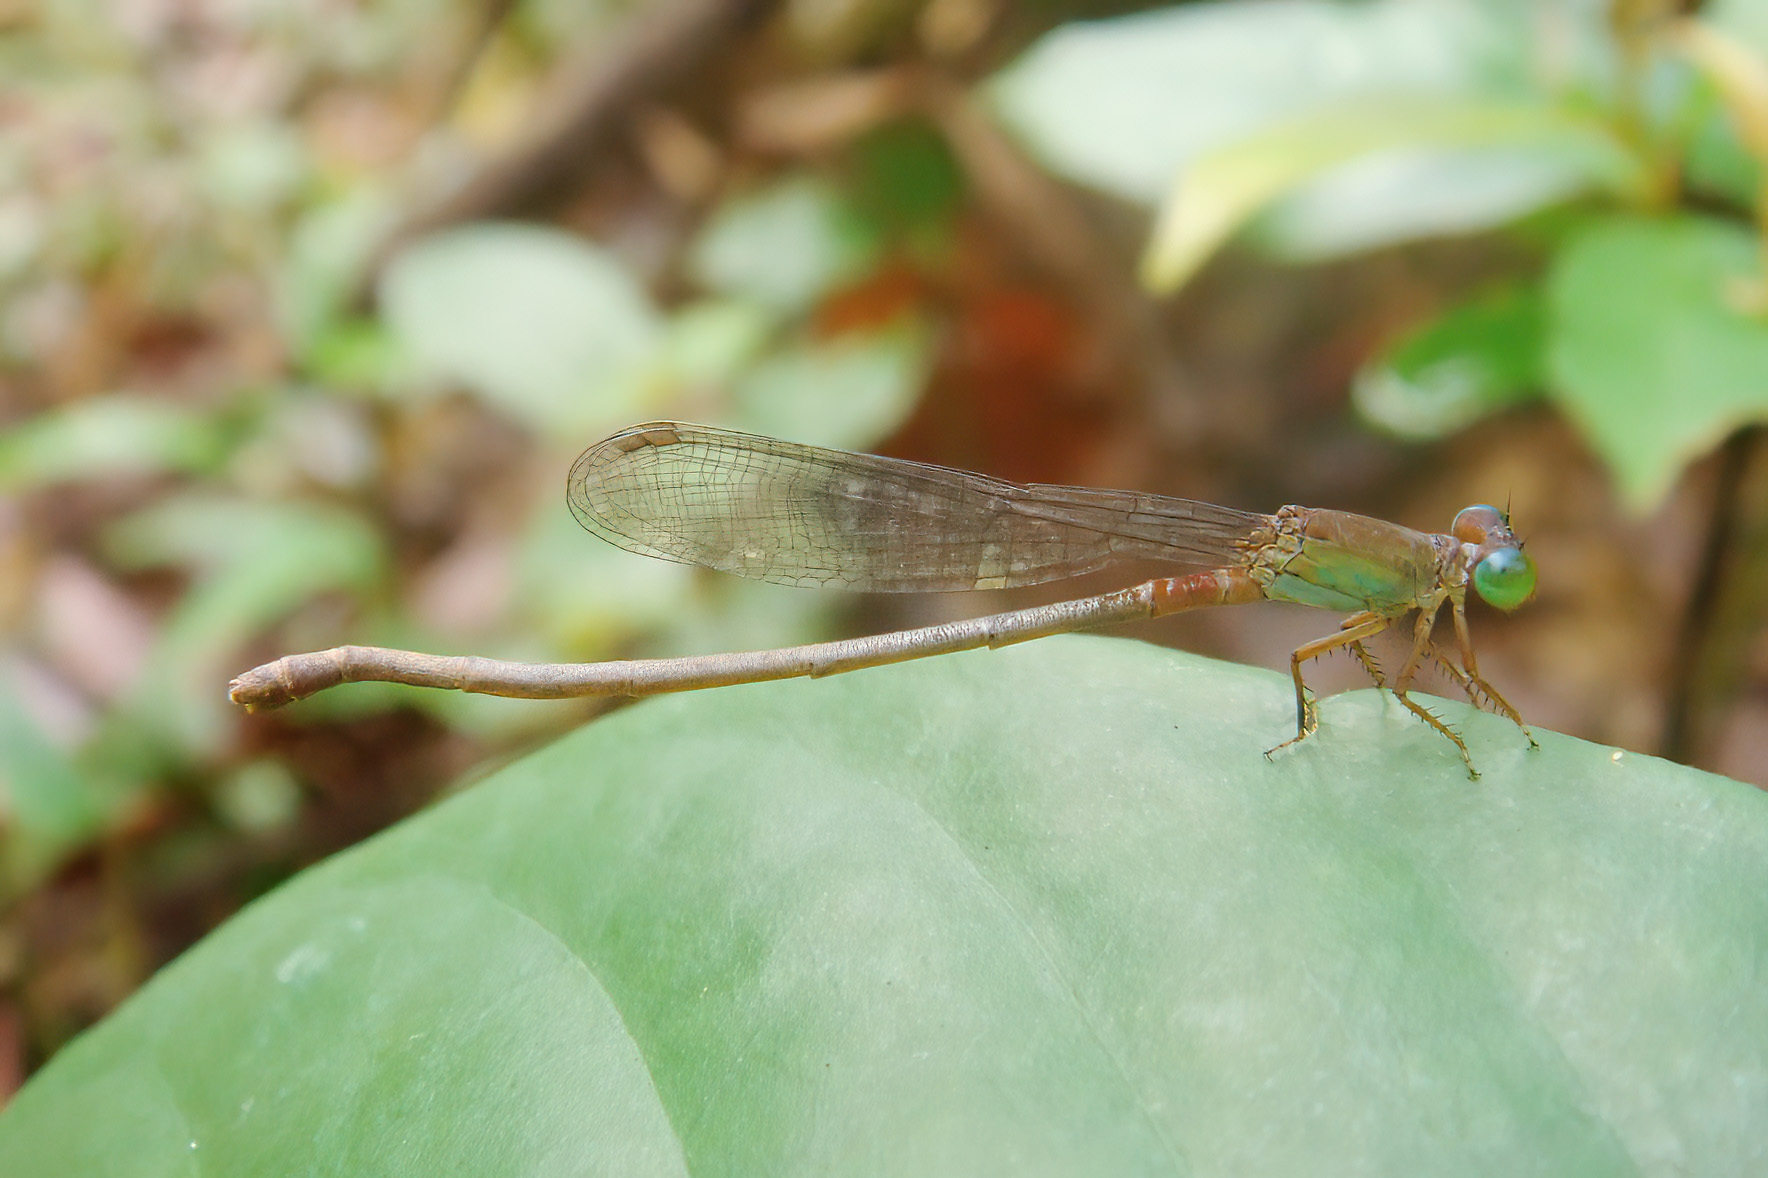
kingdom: Animalia
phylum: Arthropoda
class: Insecta
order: Odonata
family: Coenagrionidae
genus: Ceriagrion
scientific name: Ceriagrion cerinorubellum
